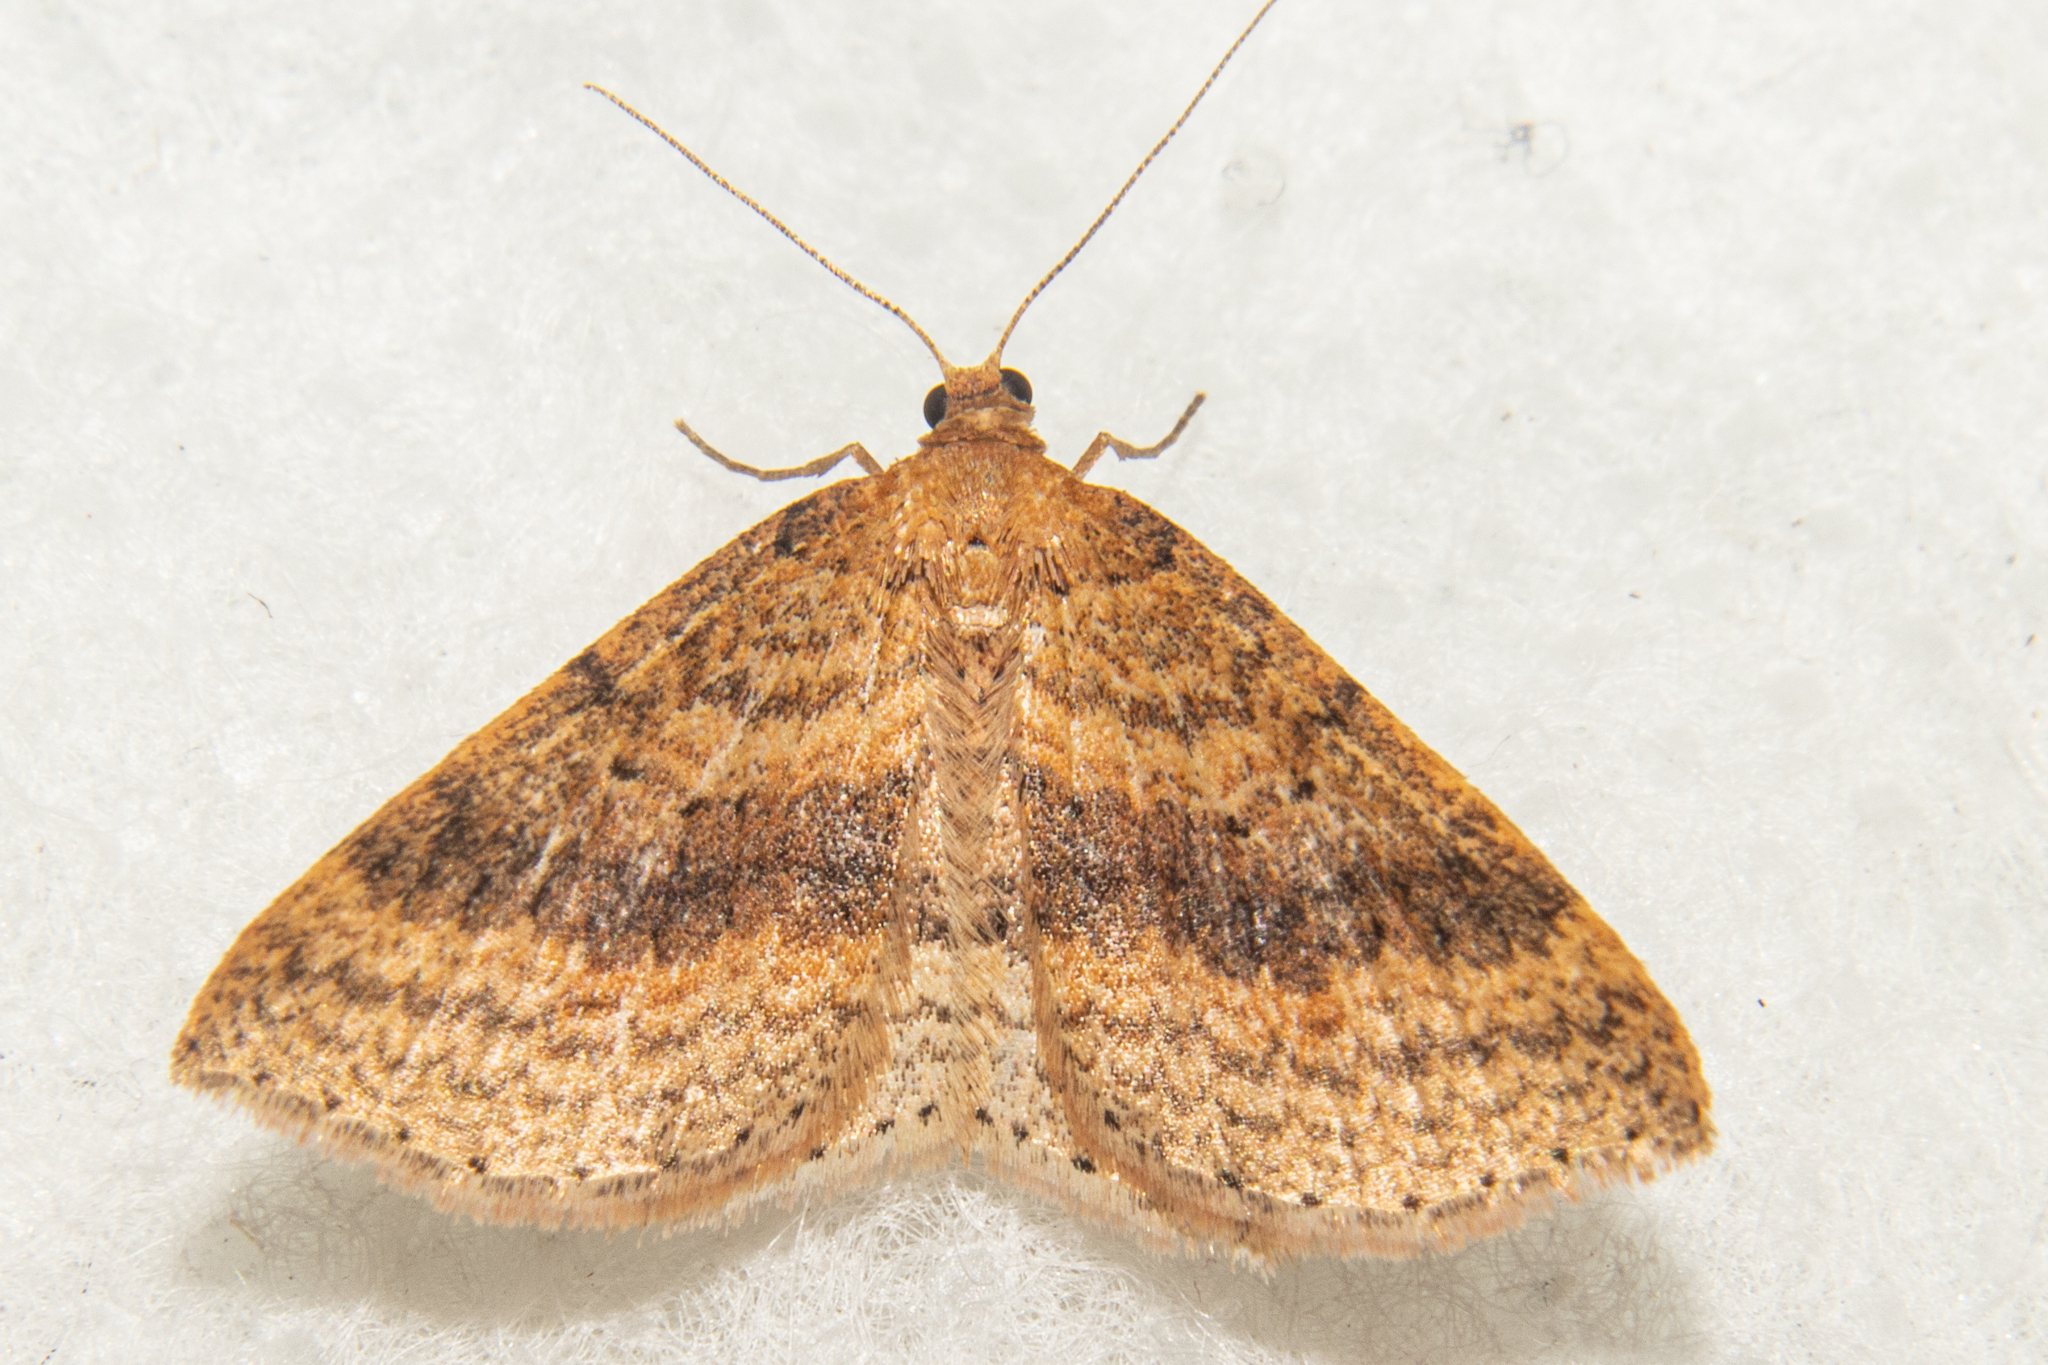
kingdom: Animalia
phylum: Arthropoda
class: Insecta
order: Lepidoptera
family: Geometridae
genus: Epicyme
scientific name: Epicyme rubropunctaria
